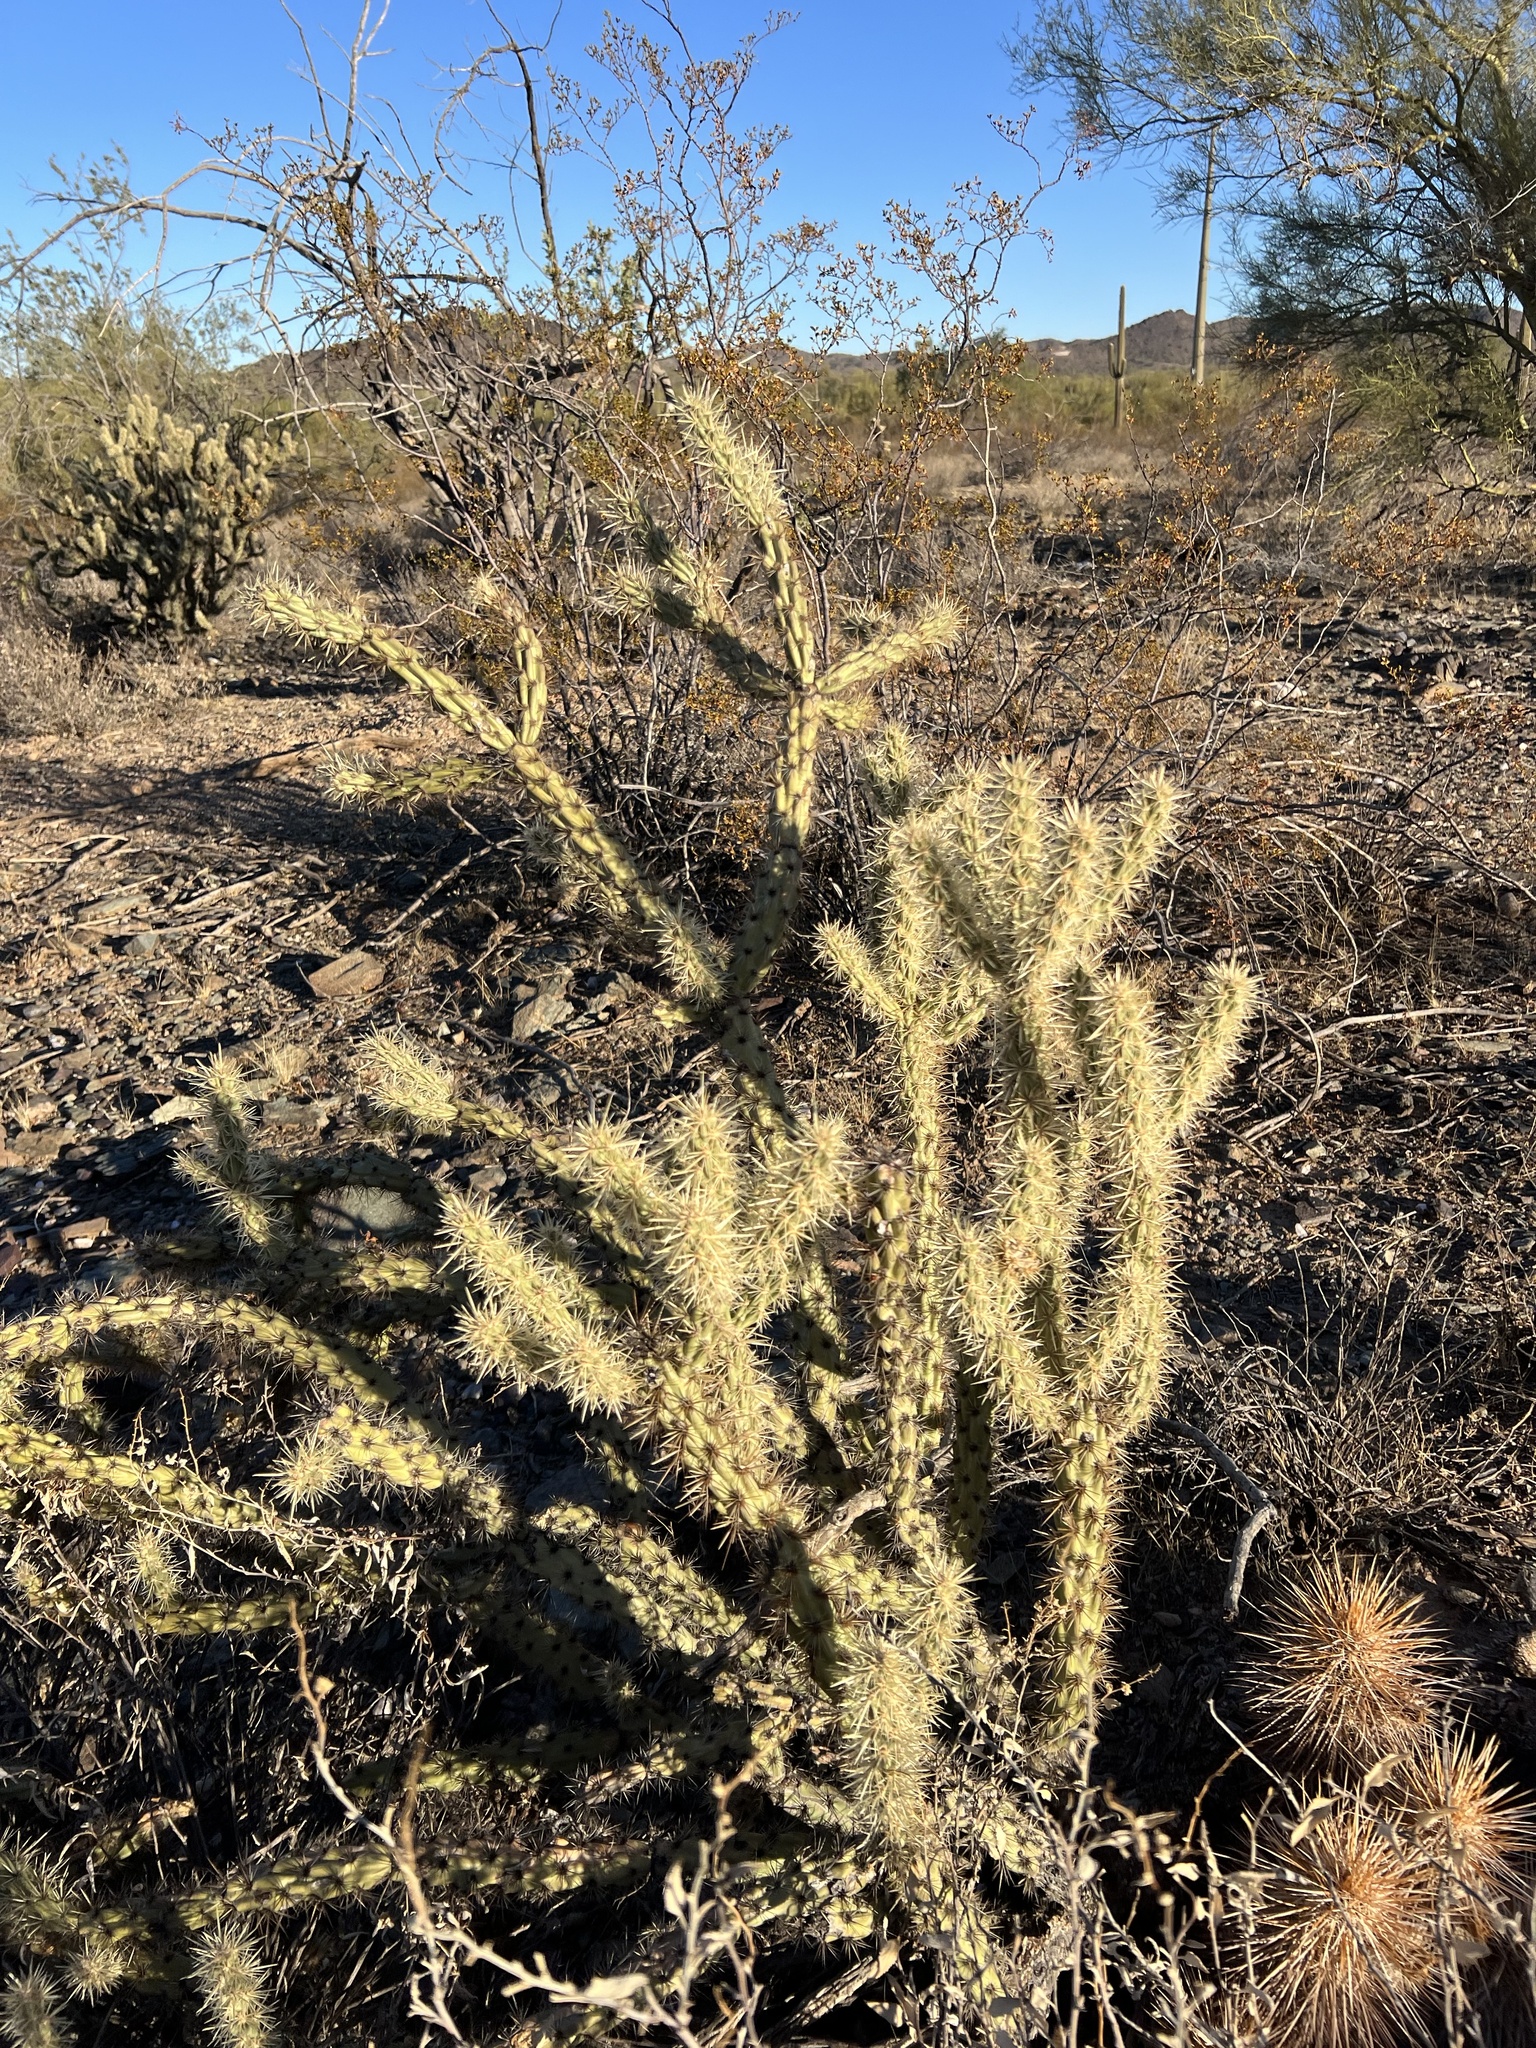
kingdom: Plantae
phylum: Tracheophyta
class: Magnoliopsida
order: Caryophyllales
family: Cactaceae
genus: Cylindropuntia
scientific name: Cylindropuntia acanthocarpa
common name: Buckhorn cholla
